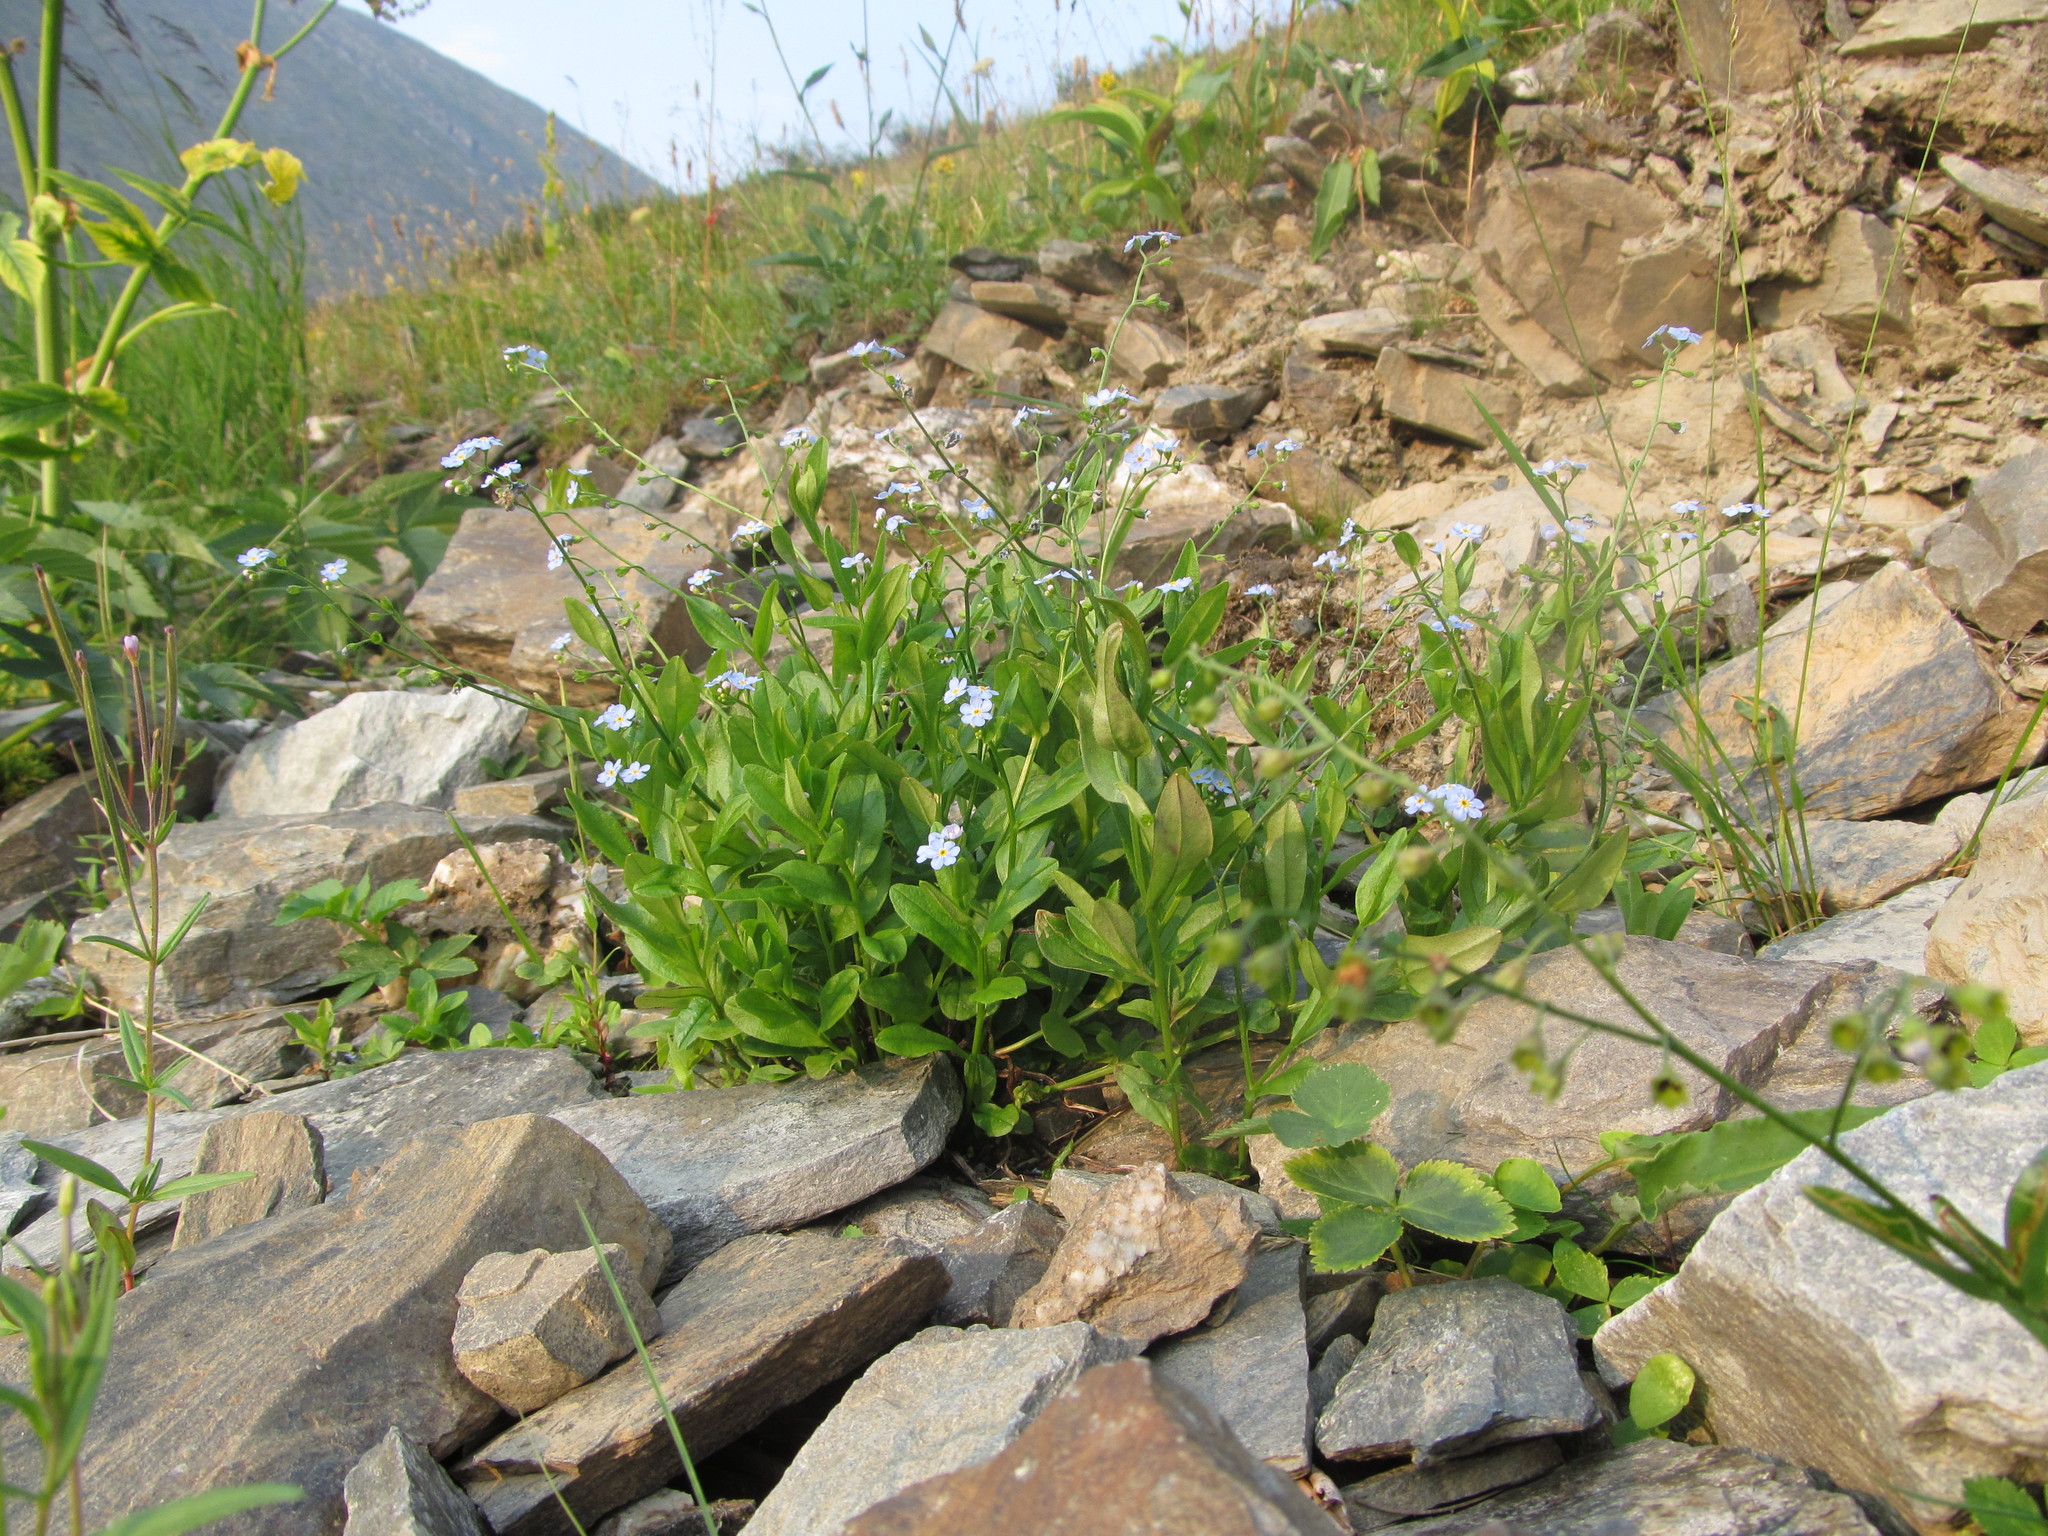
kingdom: Plantae
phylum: Tracheophyta
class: Magnoliopsida
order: Boraginales
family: Boraginaceae
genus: Myosotis
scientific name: Myosotis scorpioides
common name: Water forget-me-not
